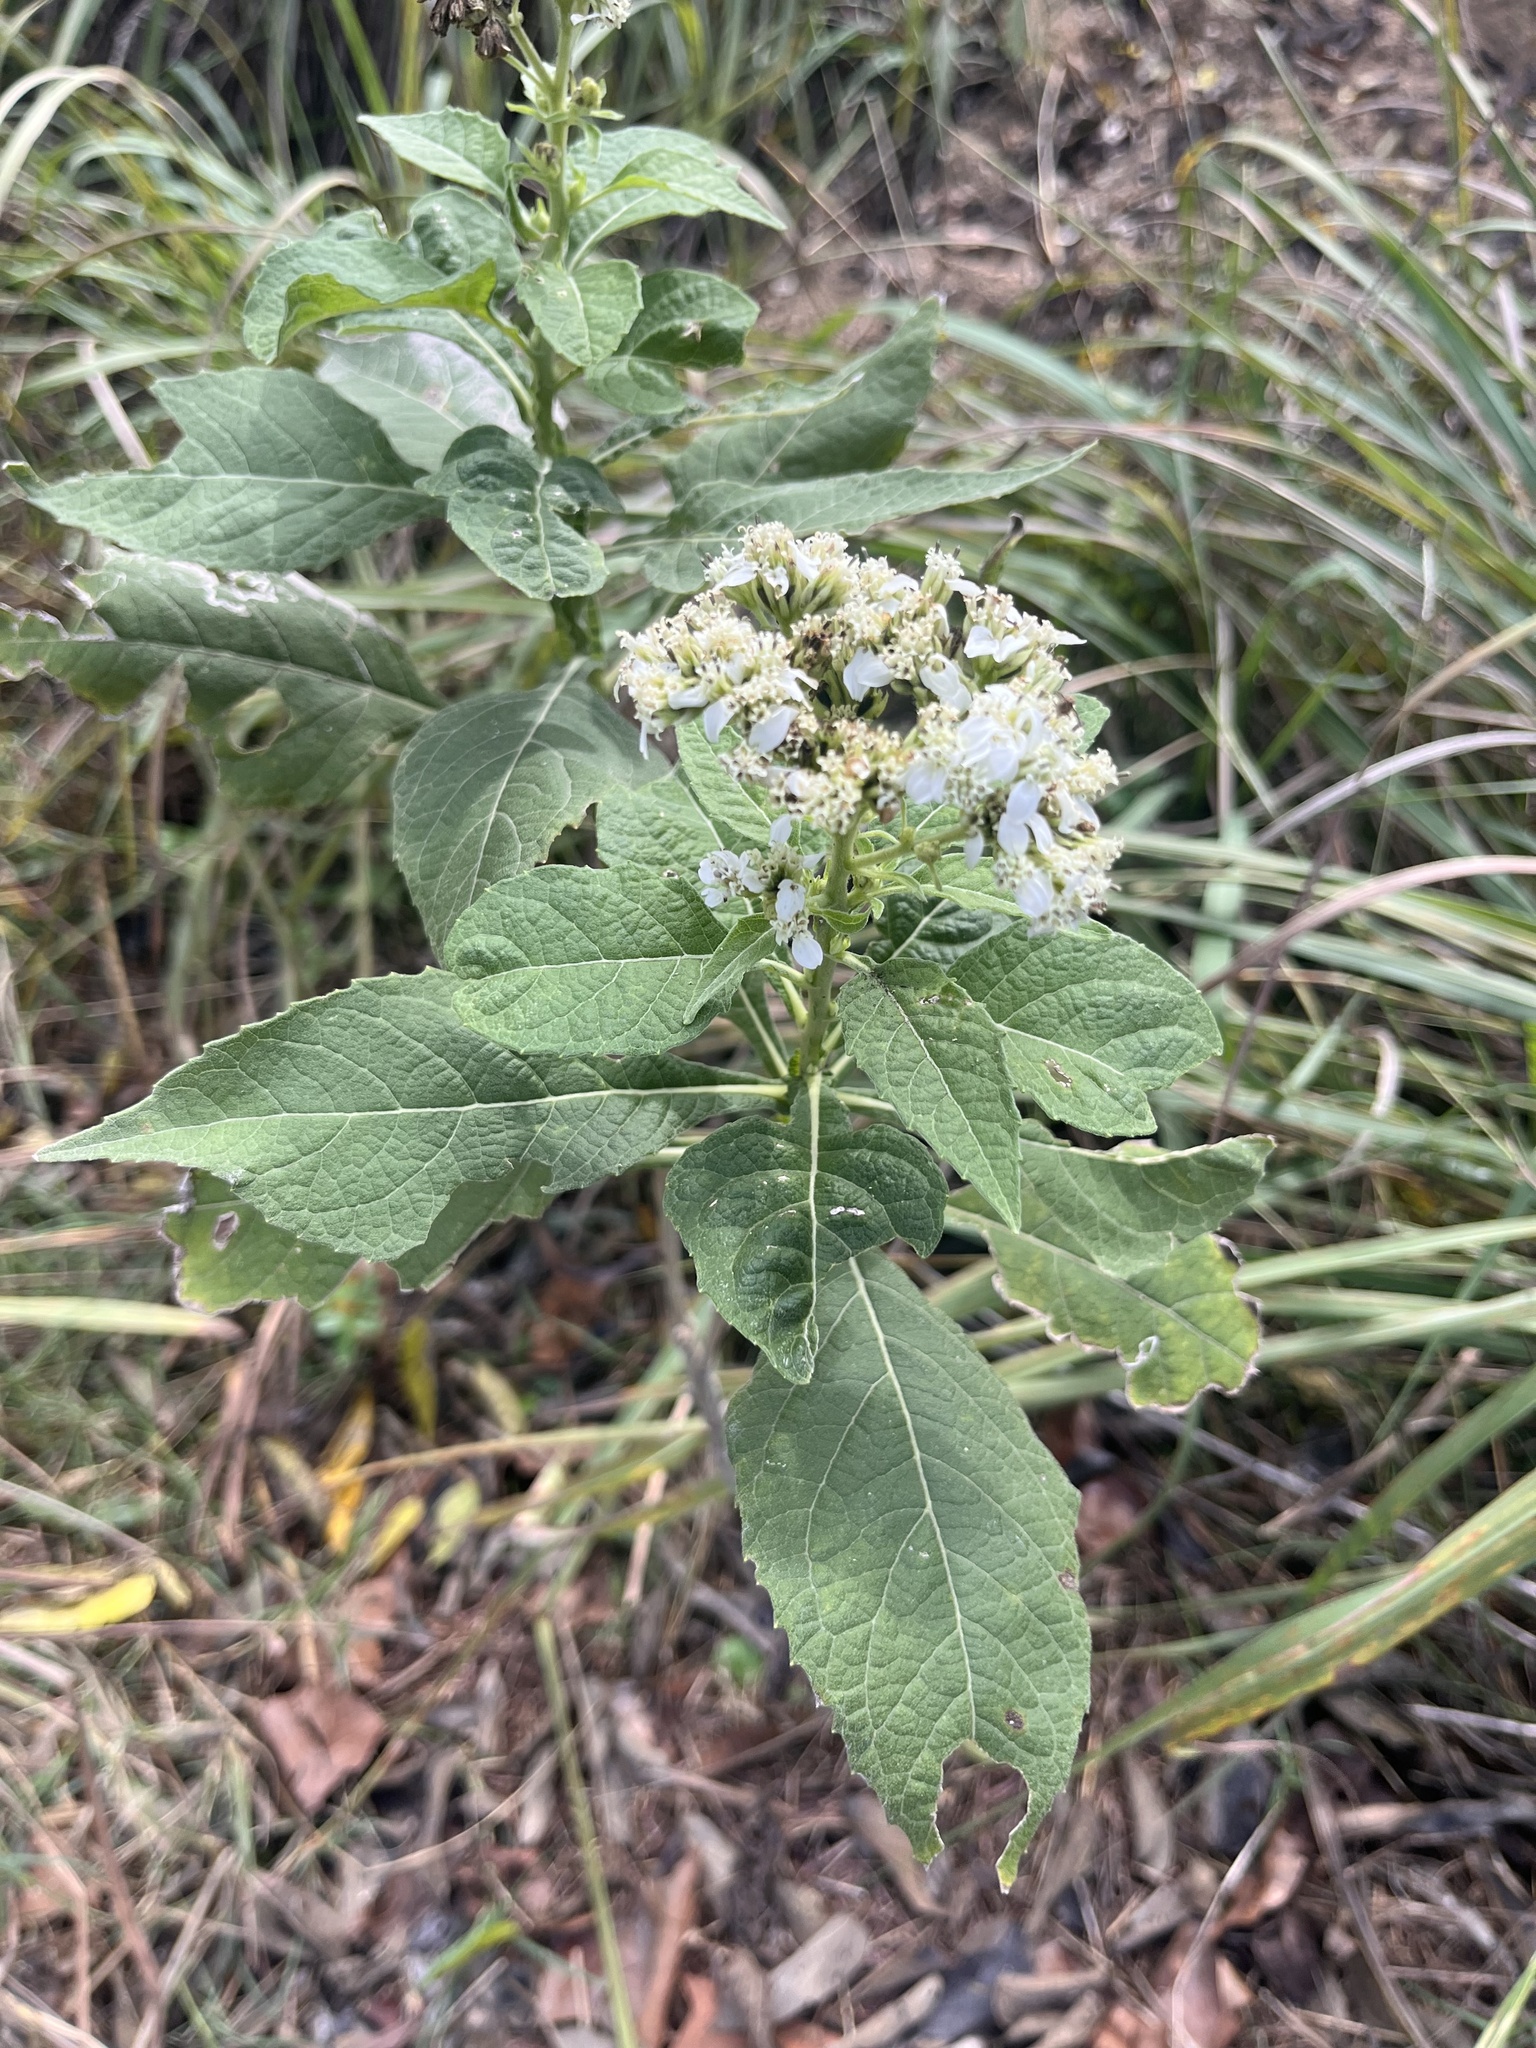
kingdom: Plantae
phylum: Tracheophyta
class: Magnoliopsida
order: Asterales
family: Asteraceae
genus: Verbesina
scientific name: Verbesina virginica
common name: Frostweed
